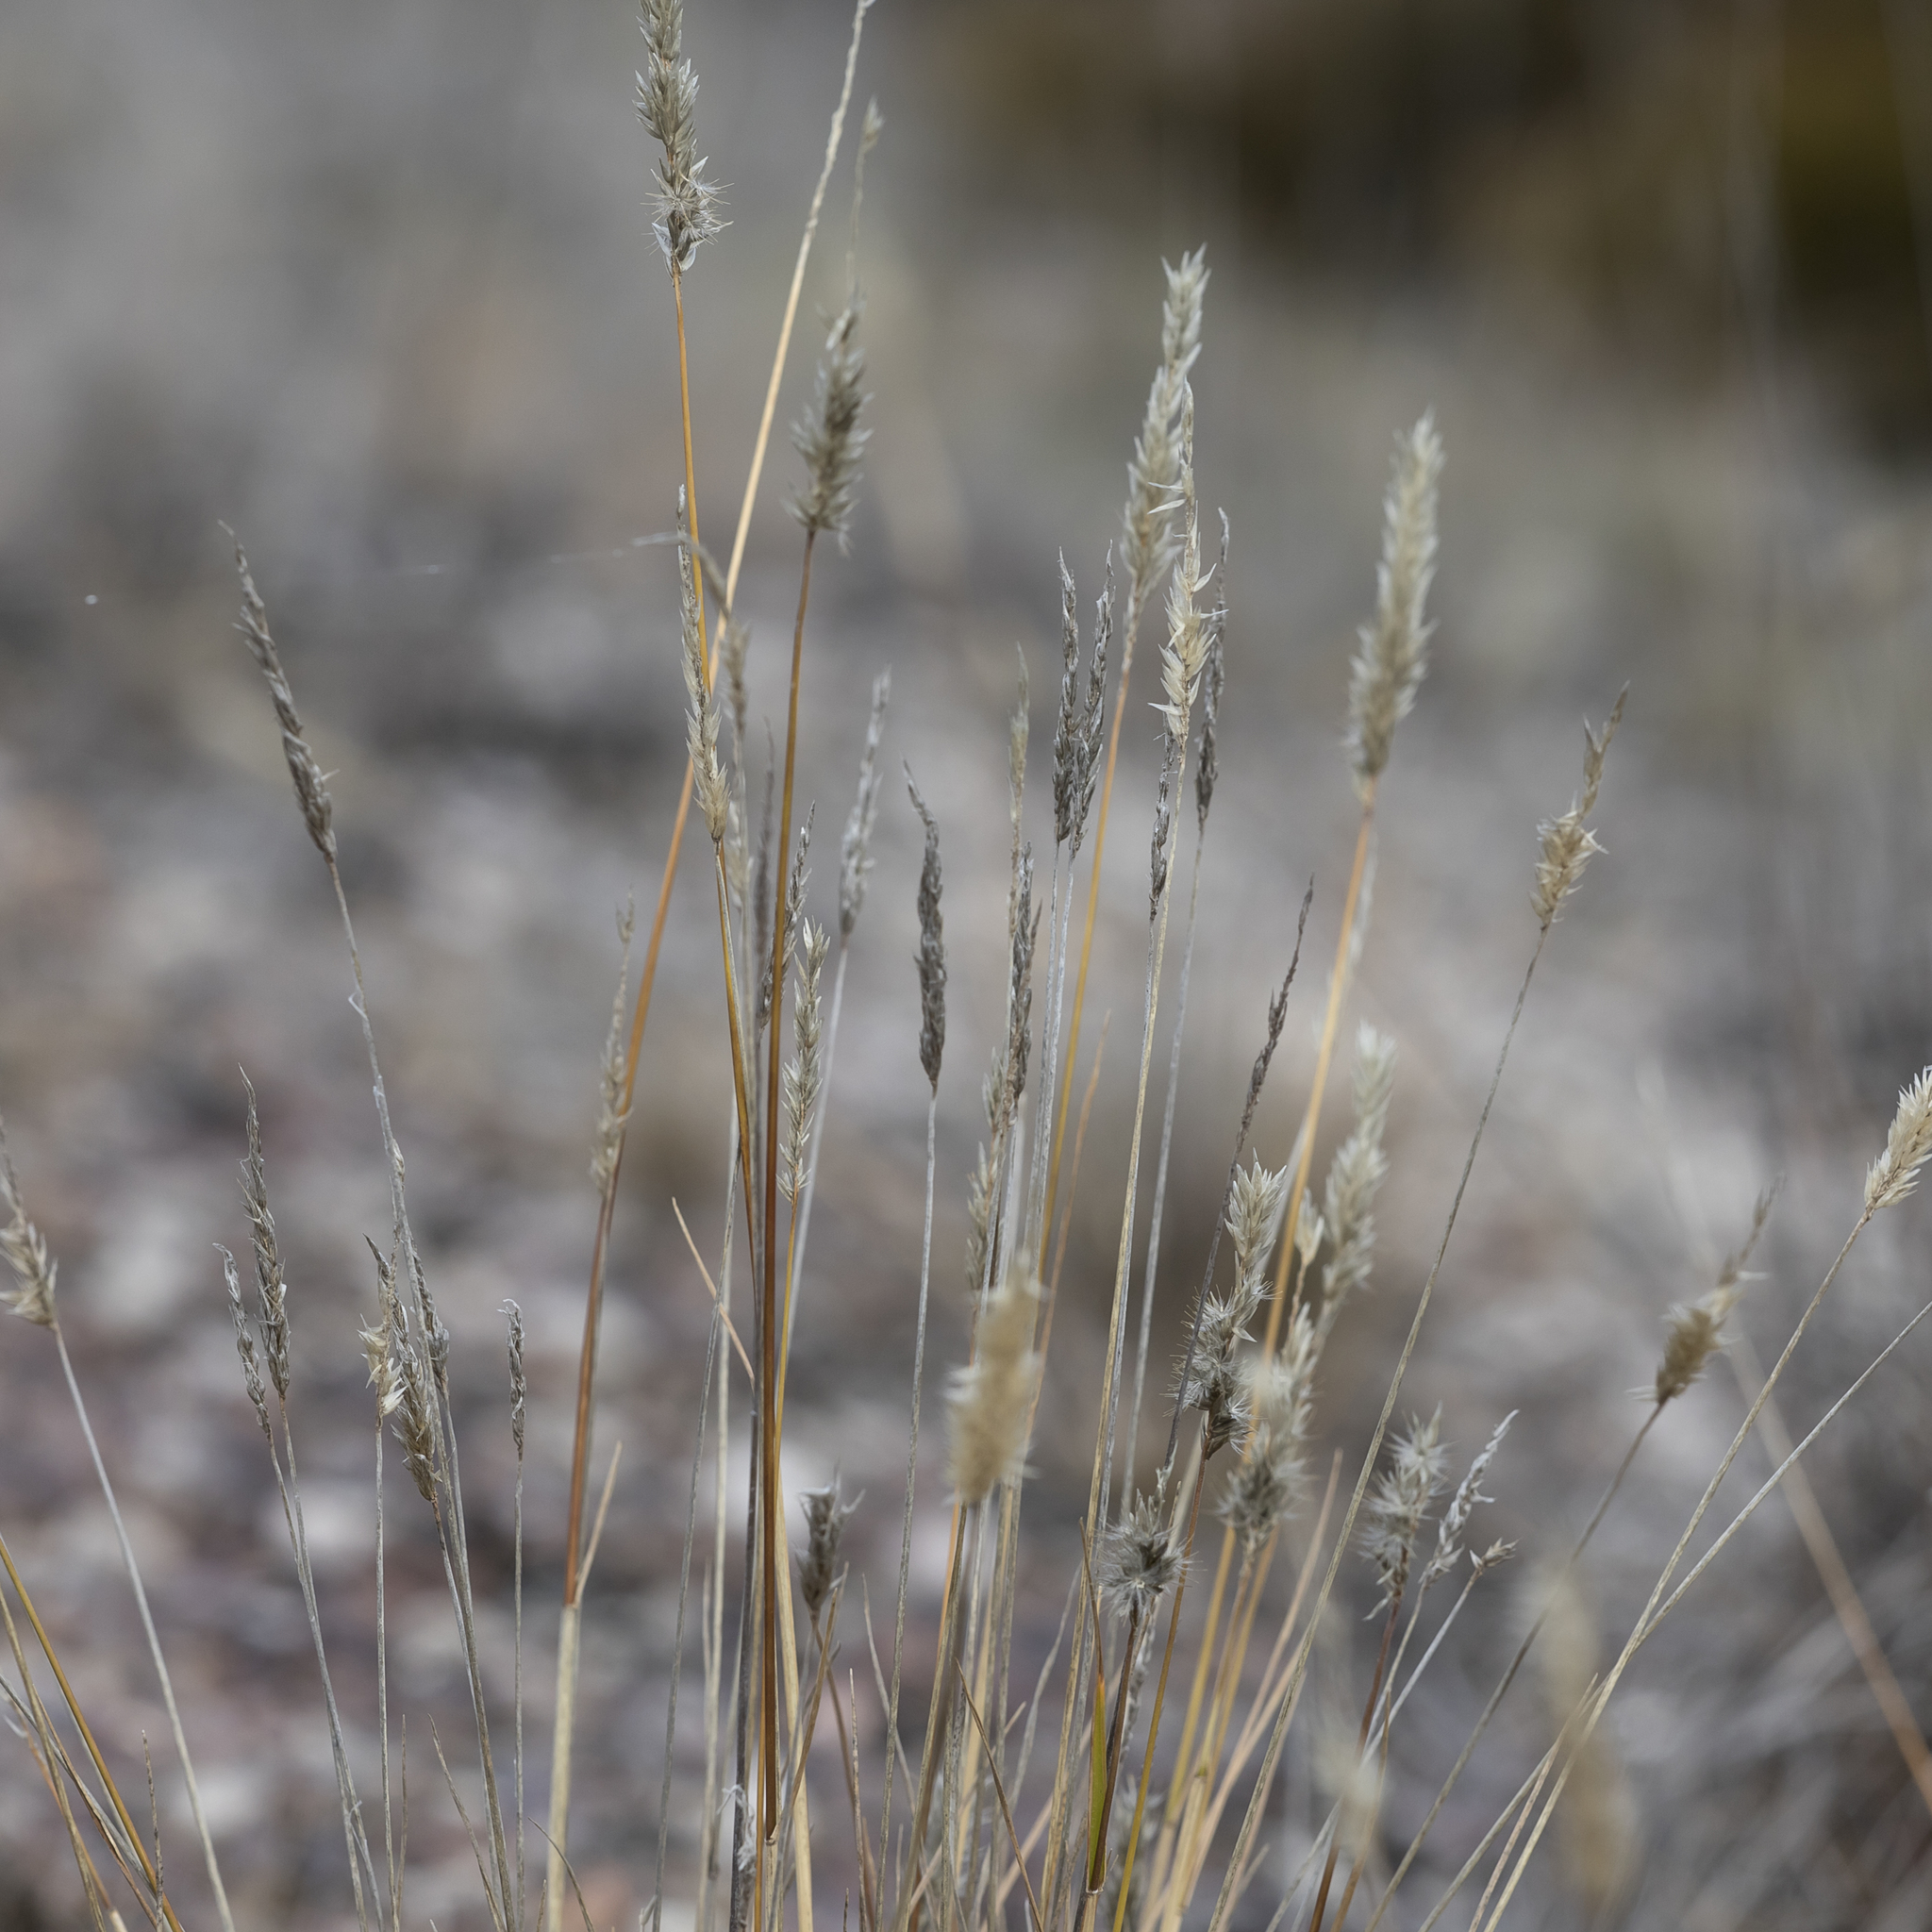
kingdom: Plantae
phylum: Tracheophyta
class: Liliopsida
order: Poales
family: Poaceae
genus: Enneapogon
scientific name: Enneapogon nigricans
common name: Pappus grass
